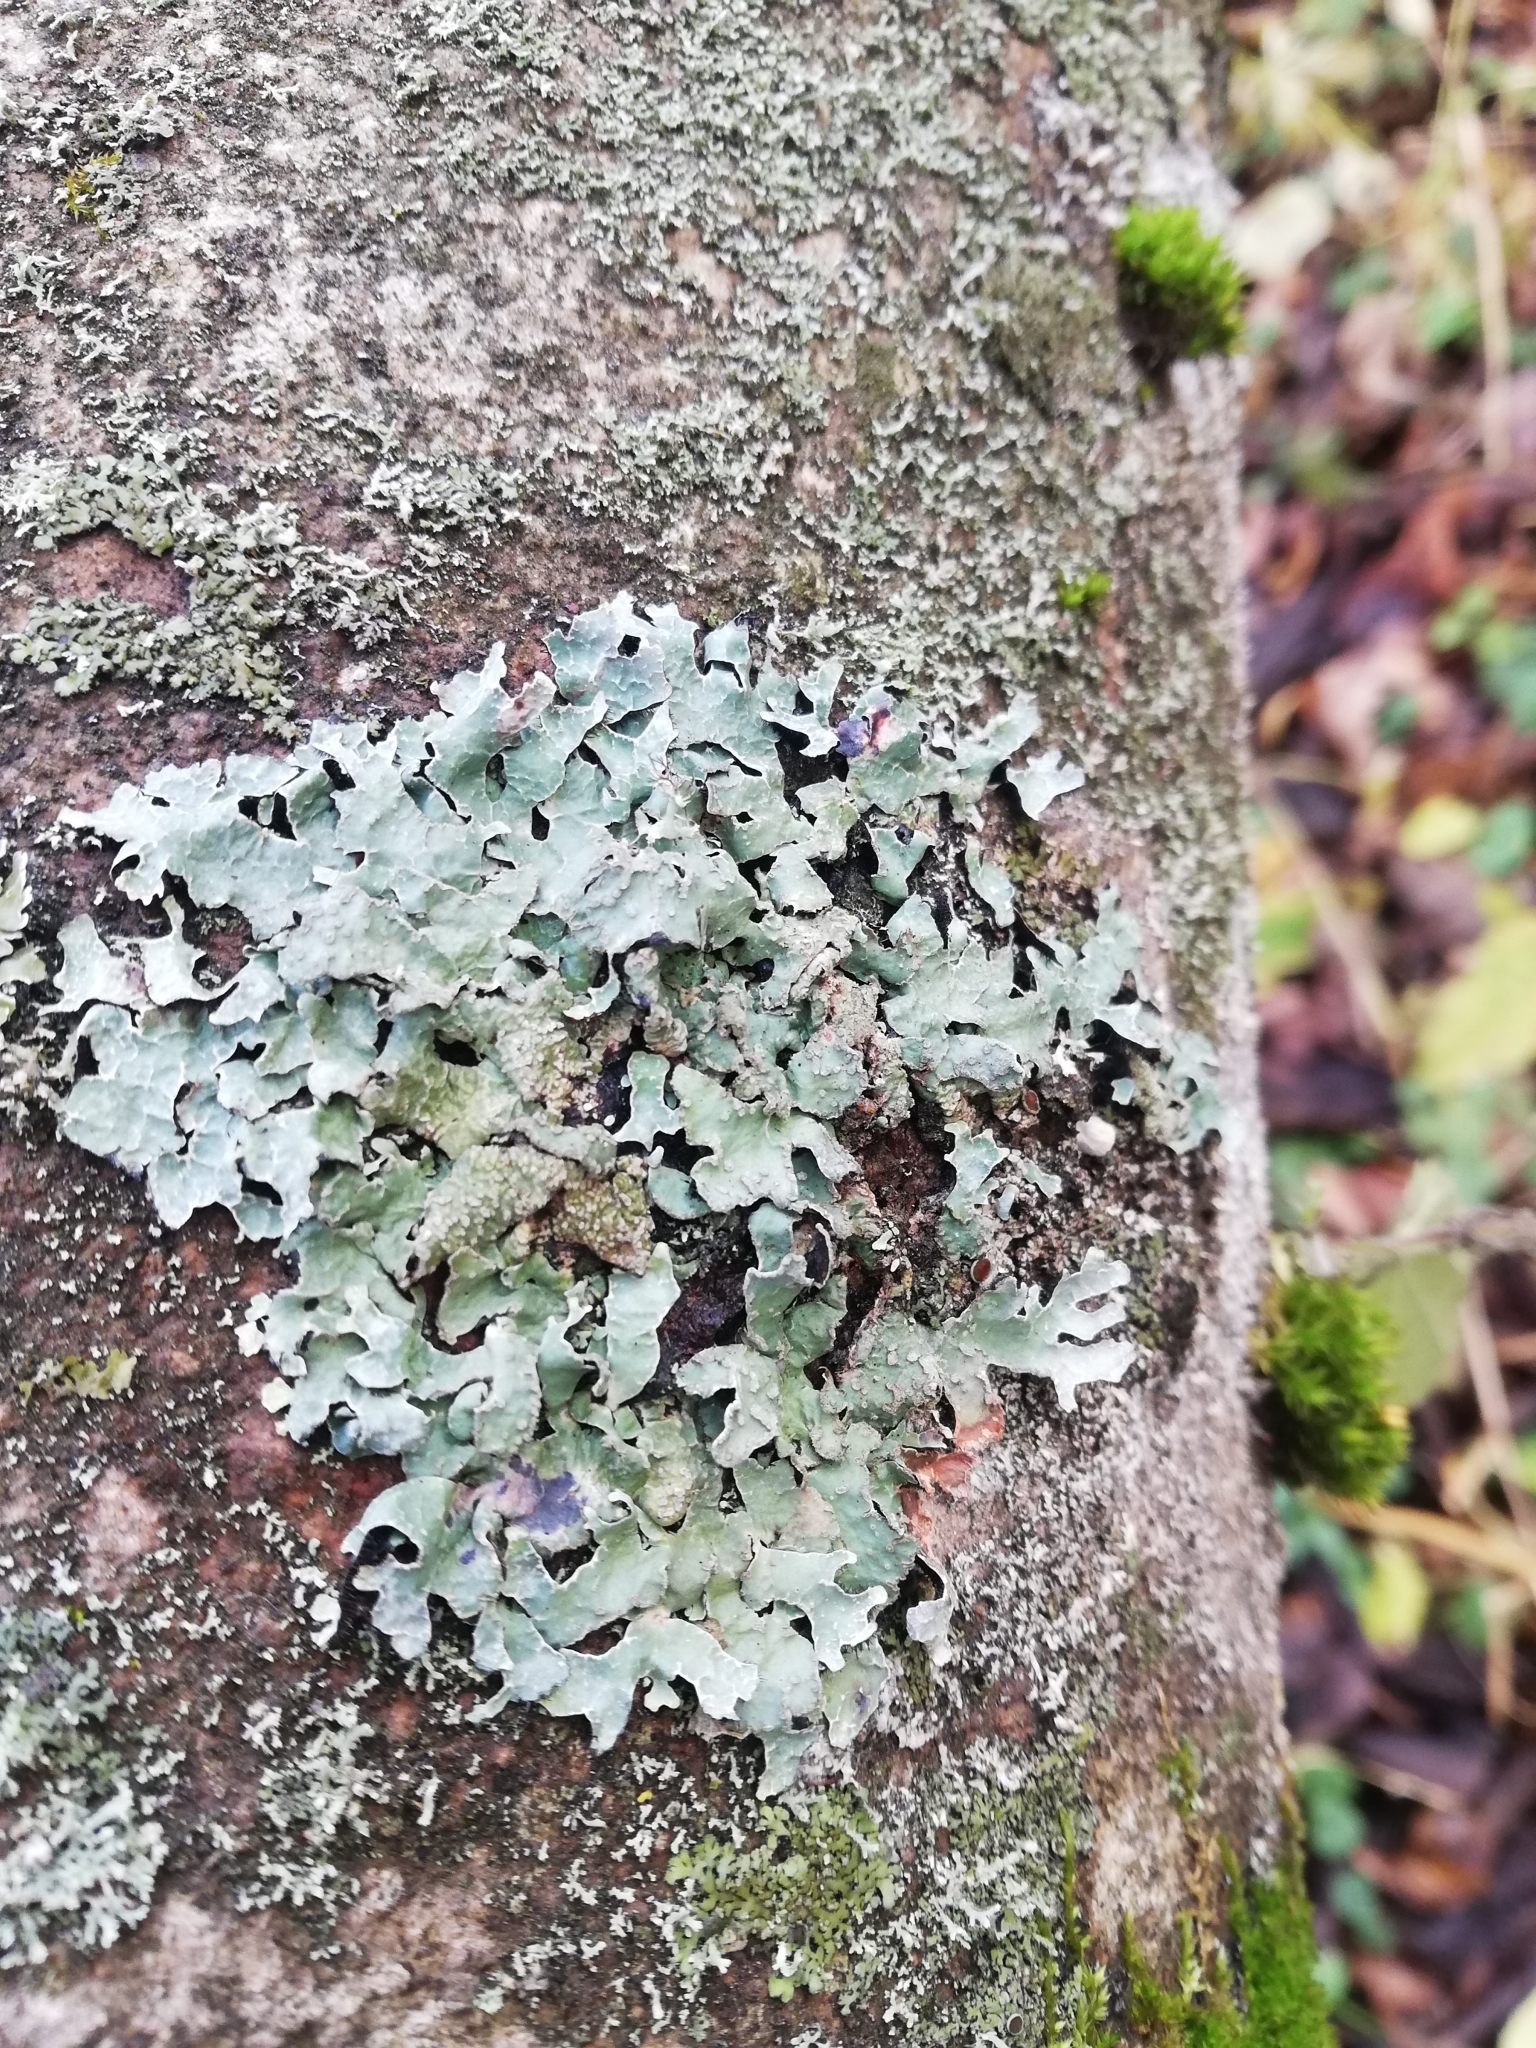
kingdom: Fungi
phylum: Ascomycota
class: Lecanoromycetes
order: Lecanorales
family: Parmeliaceae
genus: Parmelia
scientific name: Parmelia sulcata
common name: Netted shield lichen
